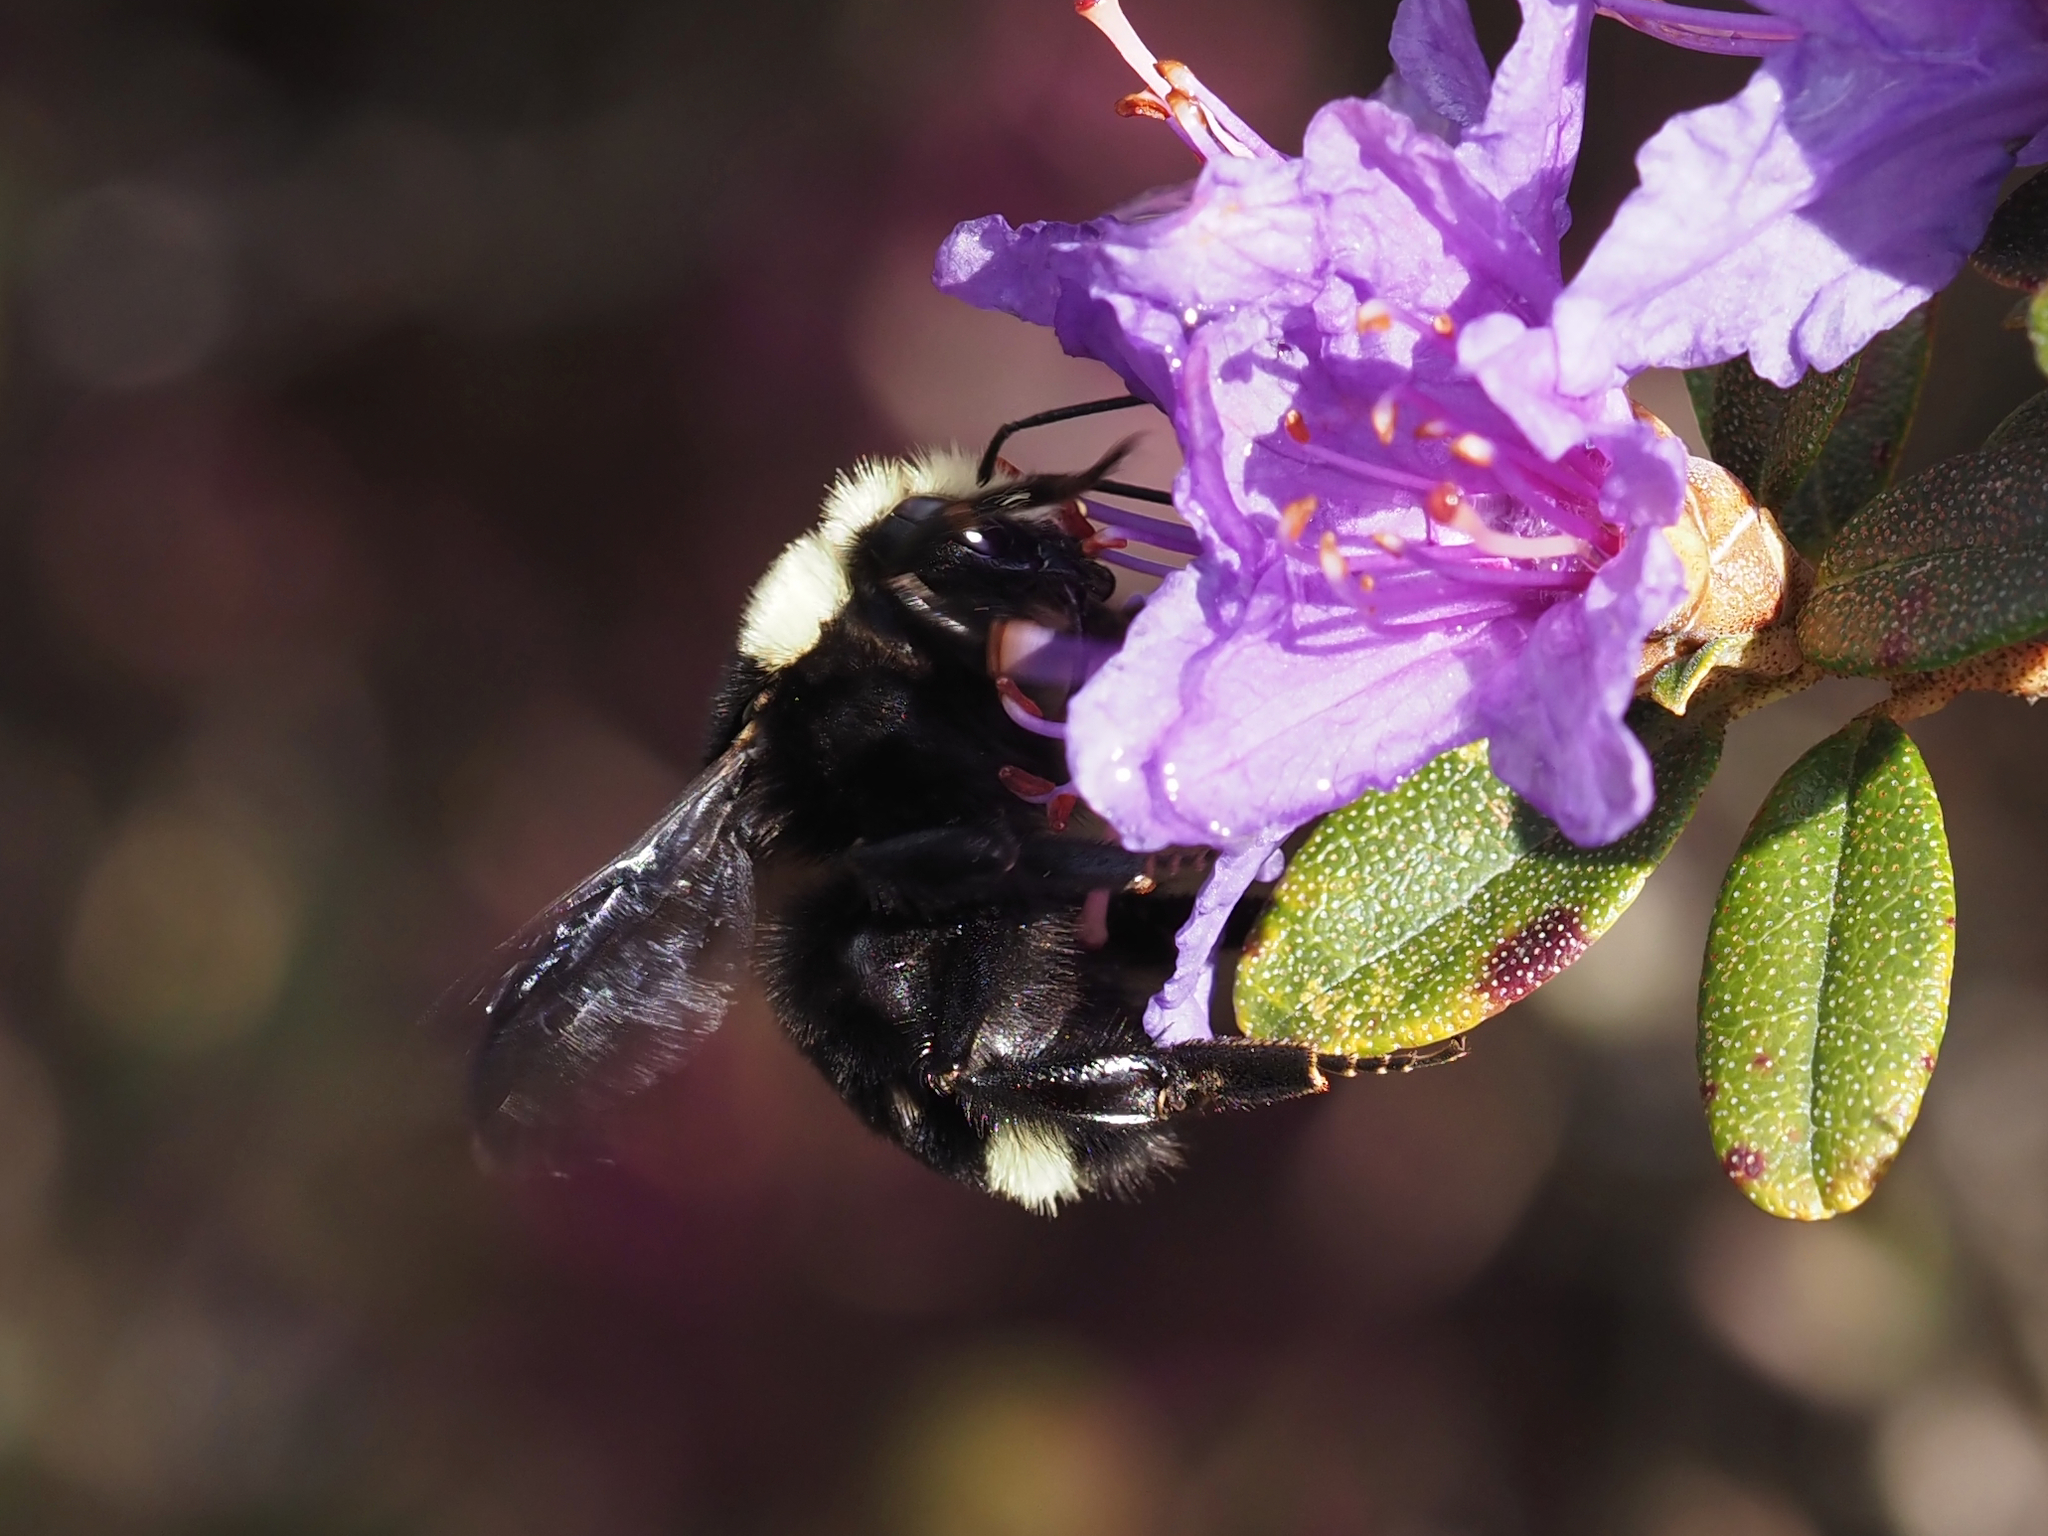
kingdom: Animalia
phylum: Arthropoda
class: Insecta
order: Hymenoptera
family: Apidae
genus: Bombus
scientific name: Bombus vosnesenskii
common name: Vosnesensky bumble bee
